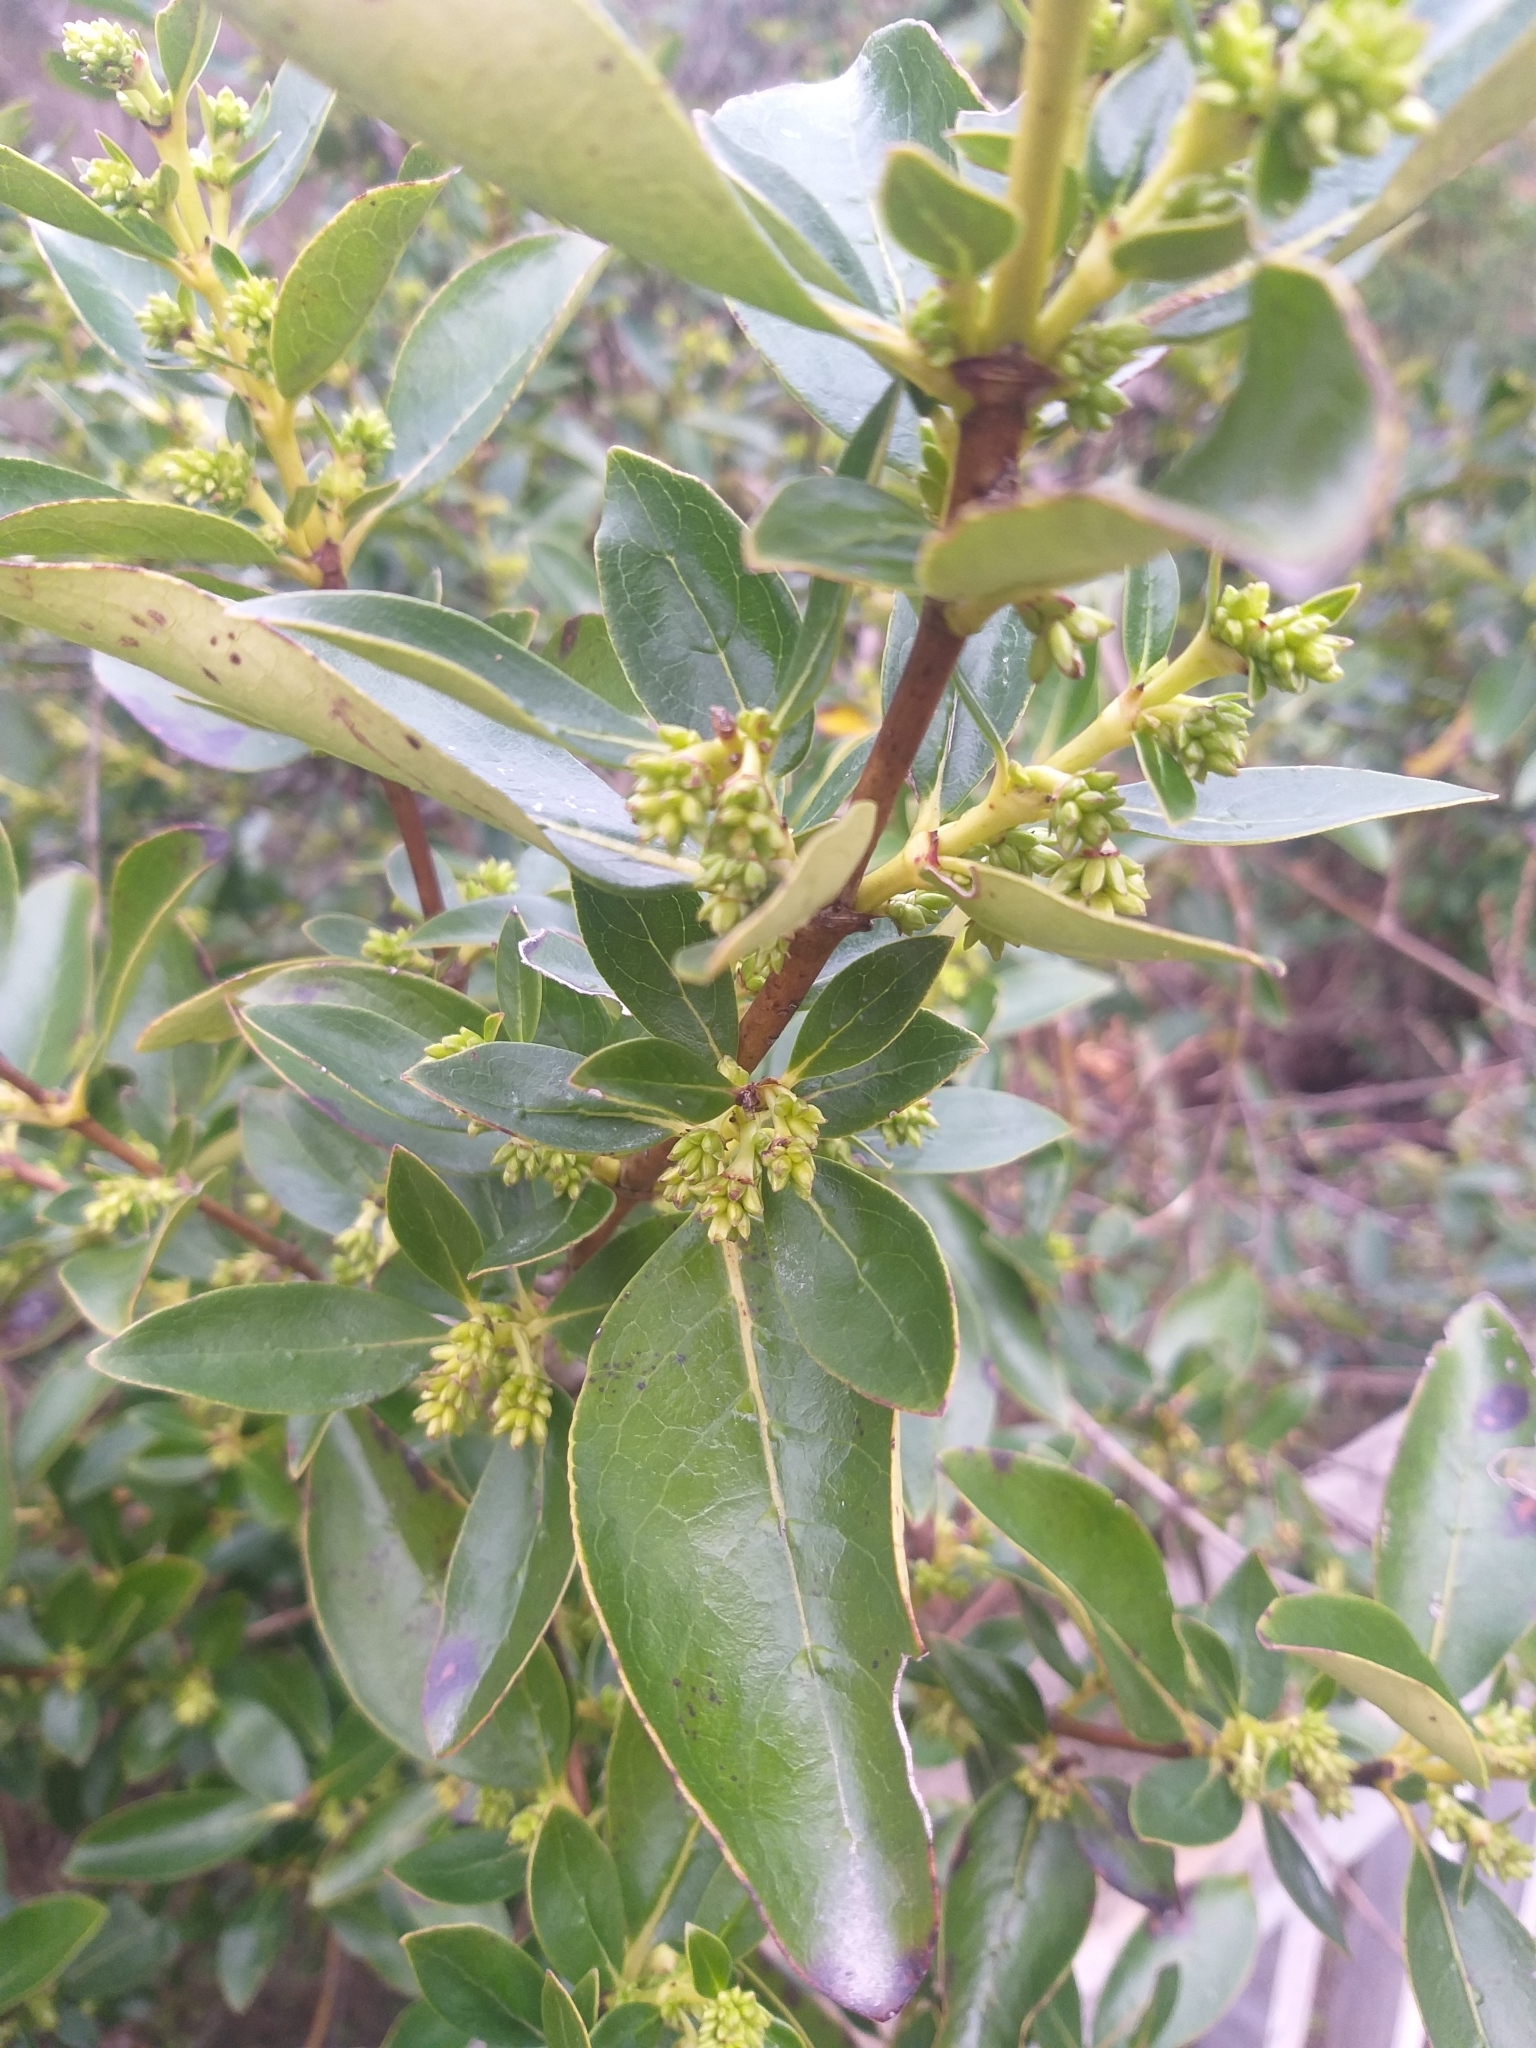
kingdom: Plantae
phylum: Tracheophyta
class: Magnoliopsida
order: Gentianales
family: Rubiaceae
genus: Coprosma
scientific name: Coprosma robusta
